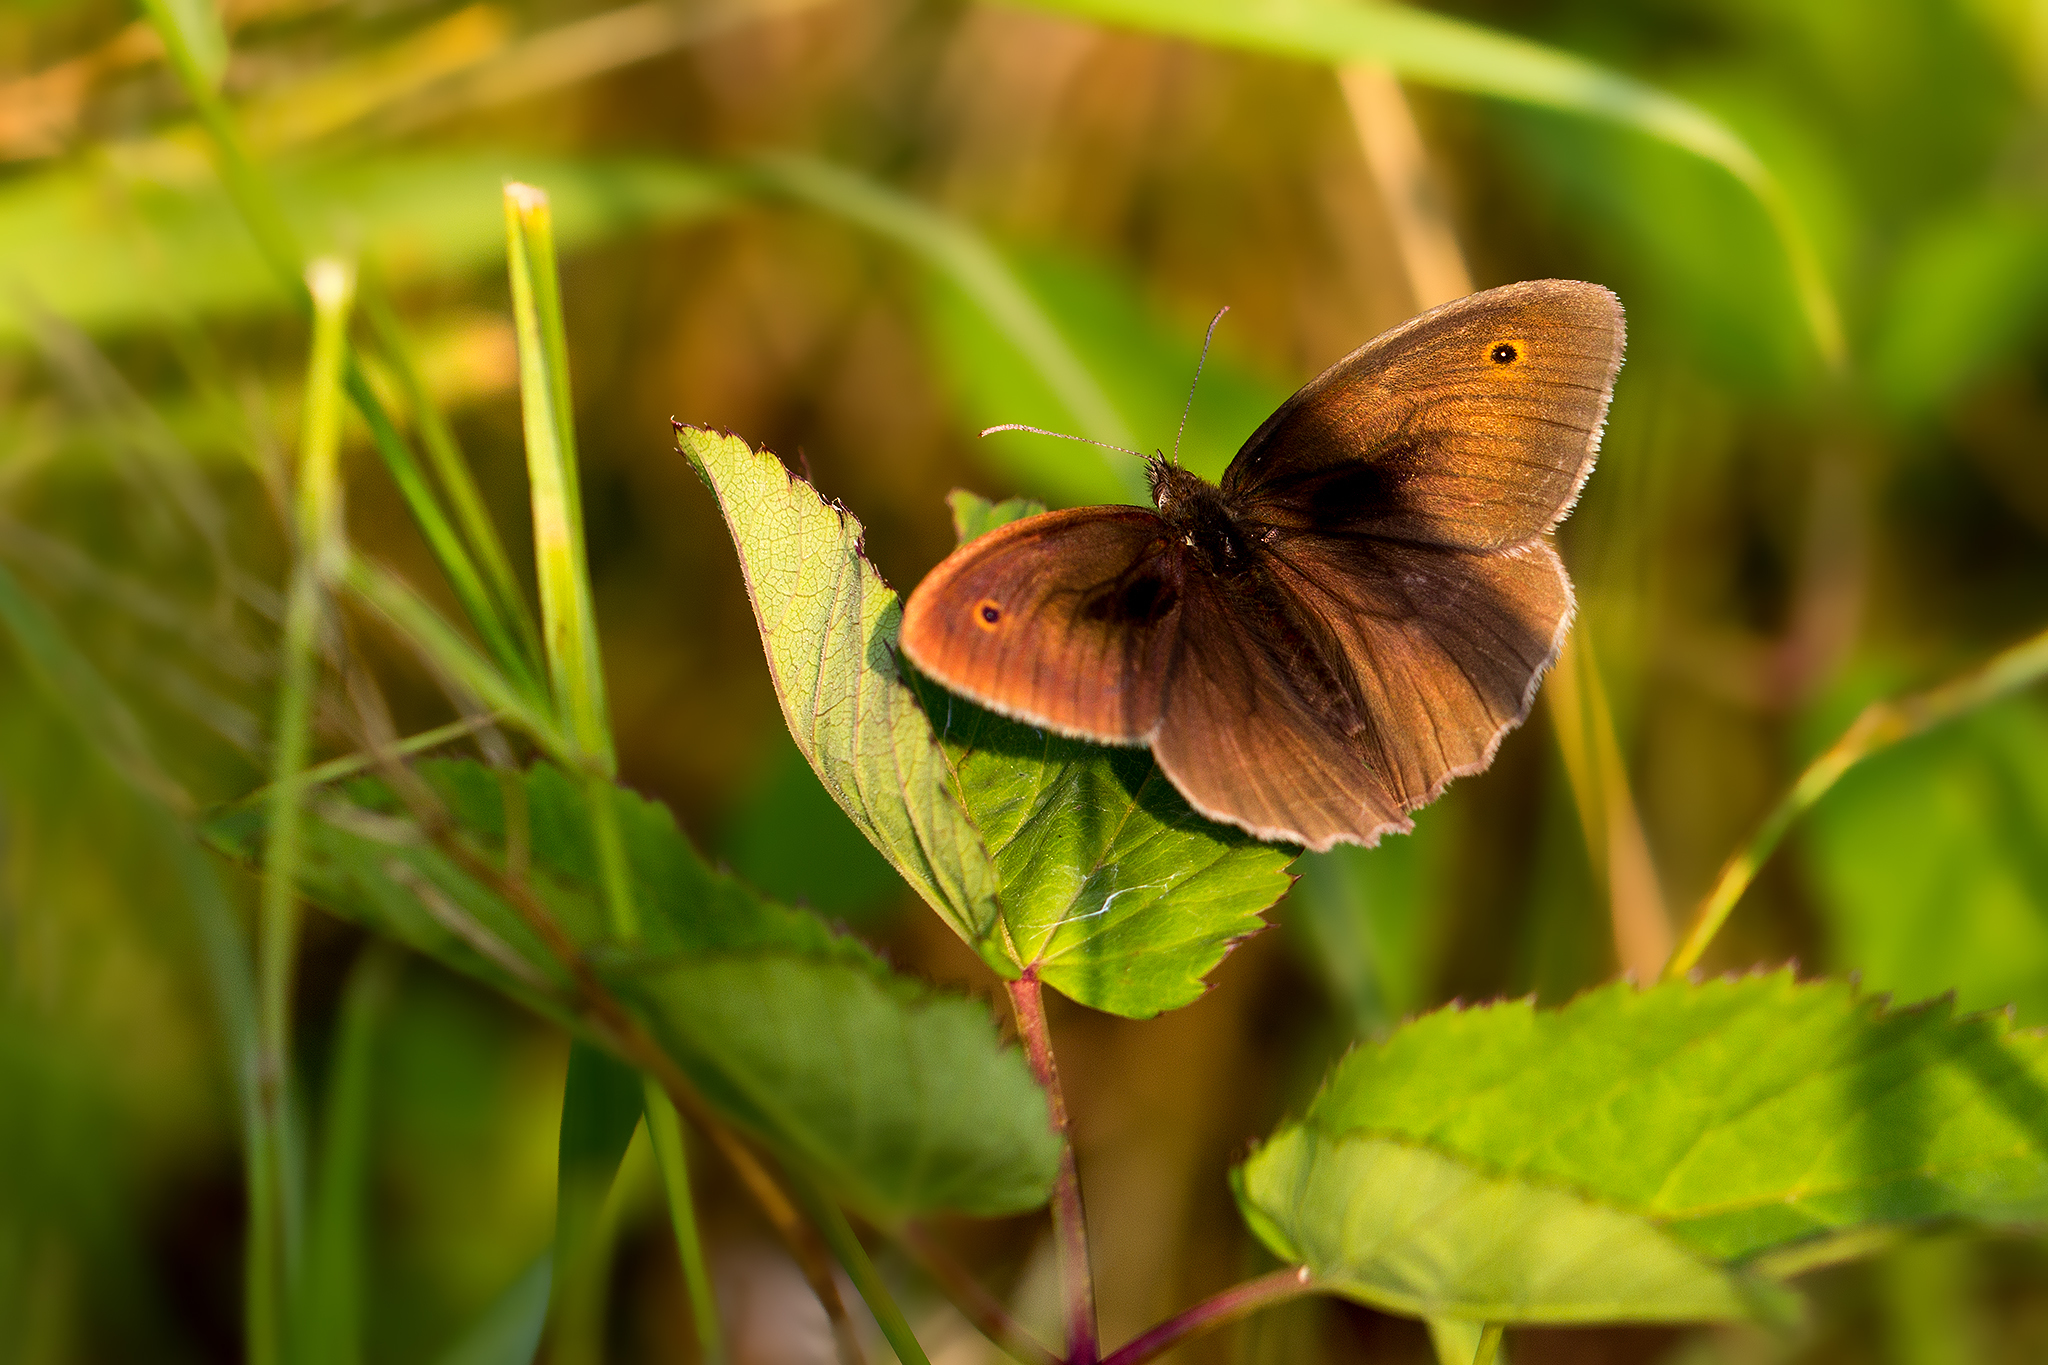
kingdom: Animalia
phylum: Arthropoda
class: Insecta
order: Lepidoptera
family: Nymphalidae
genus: Maniola
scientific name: Maniola jurtina
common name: Meadow brown
